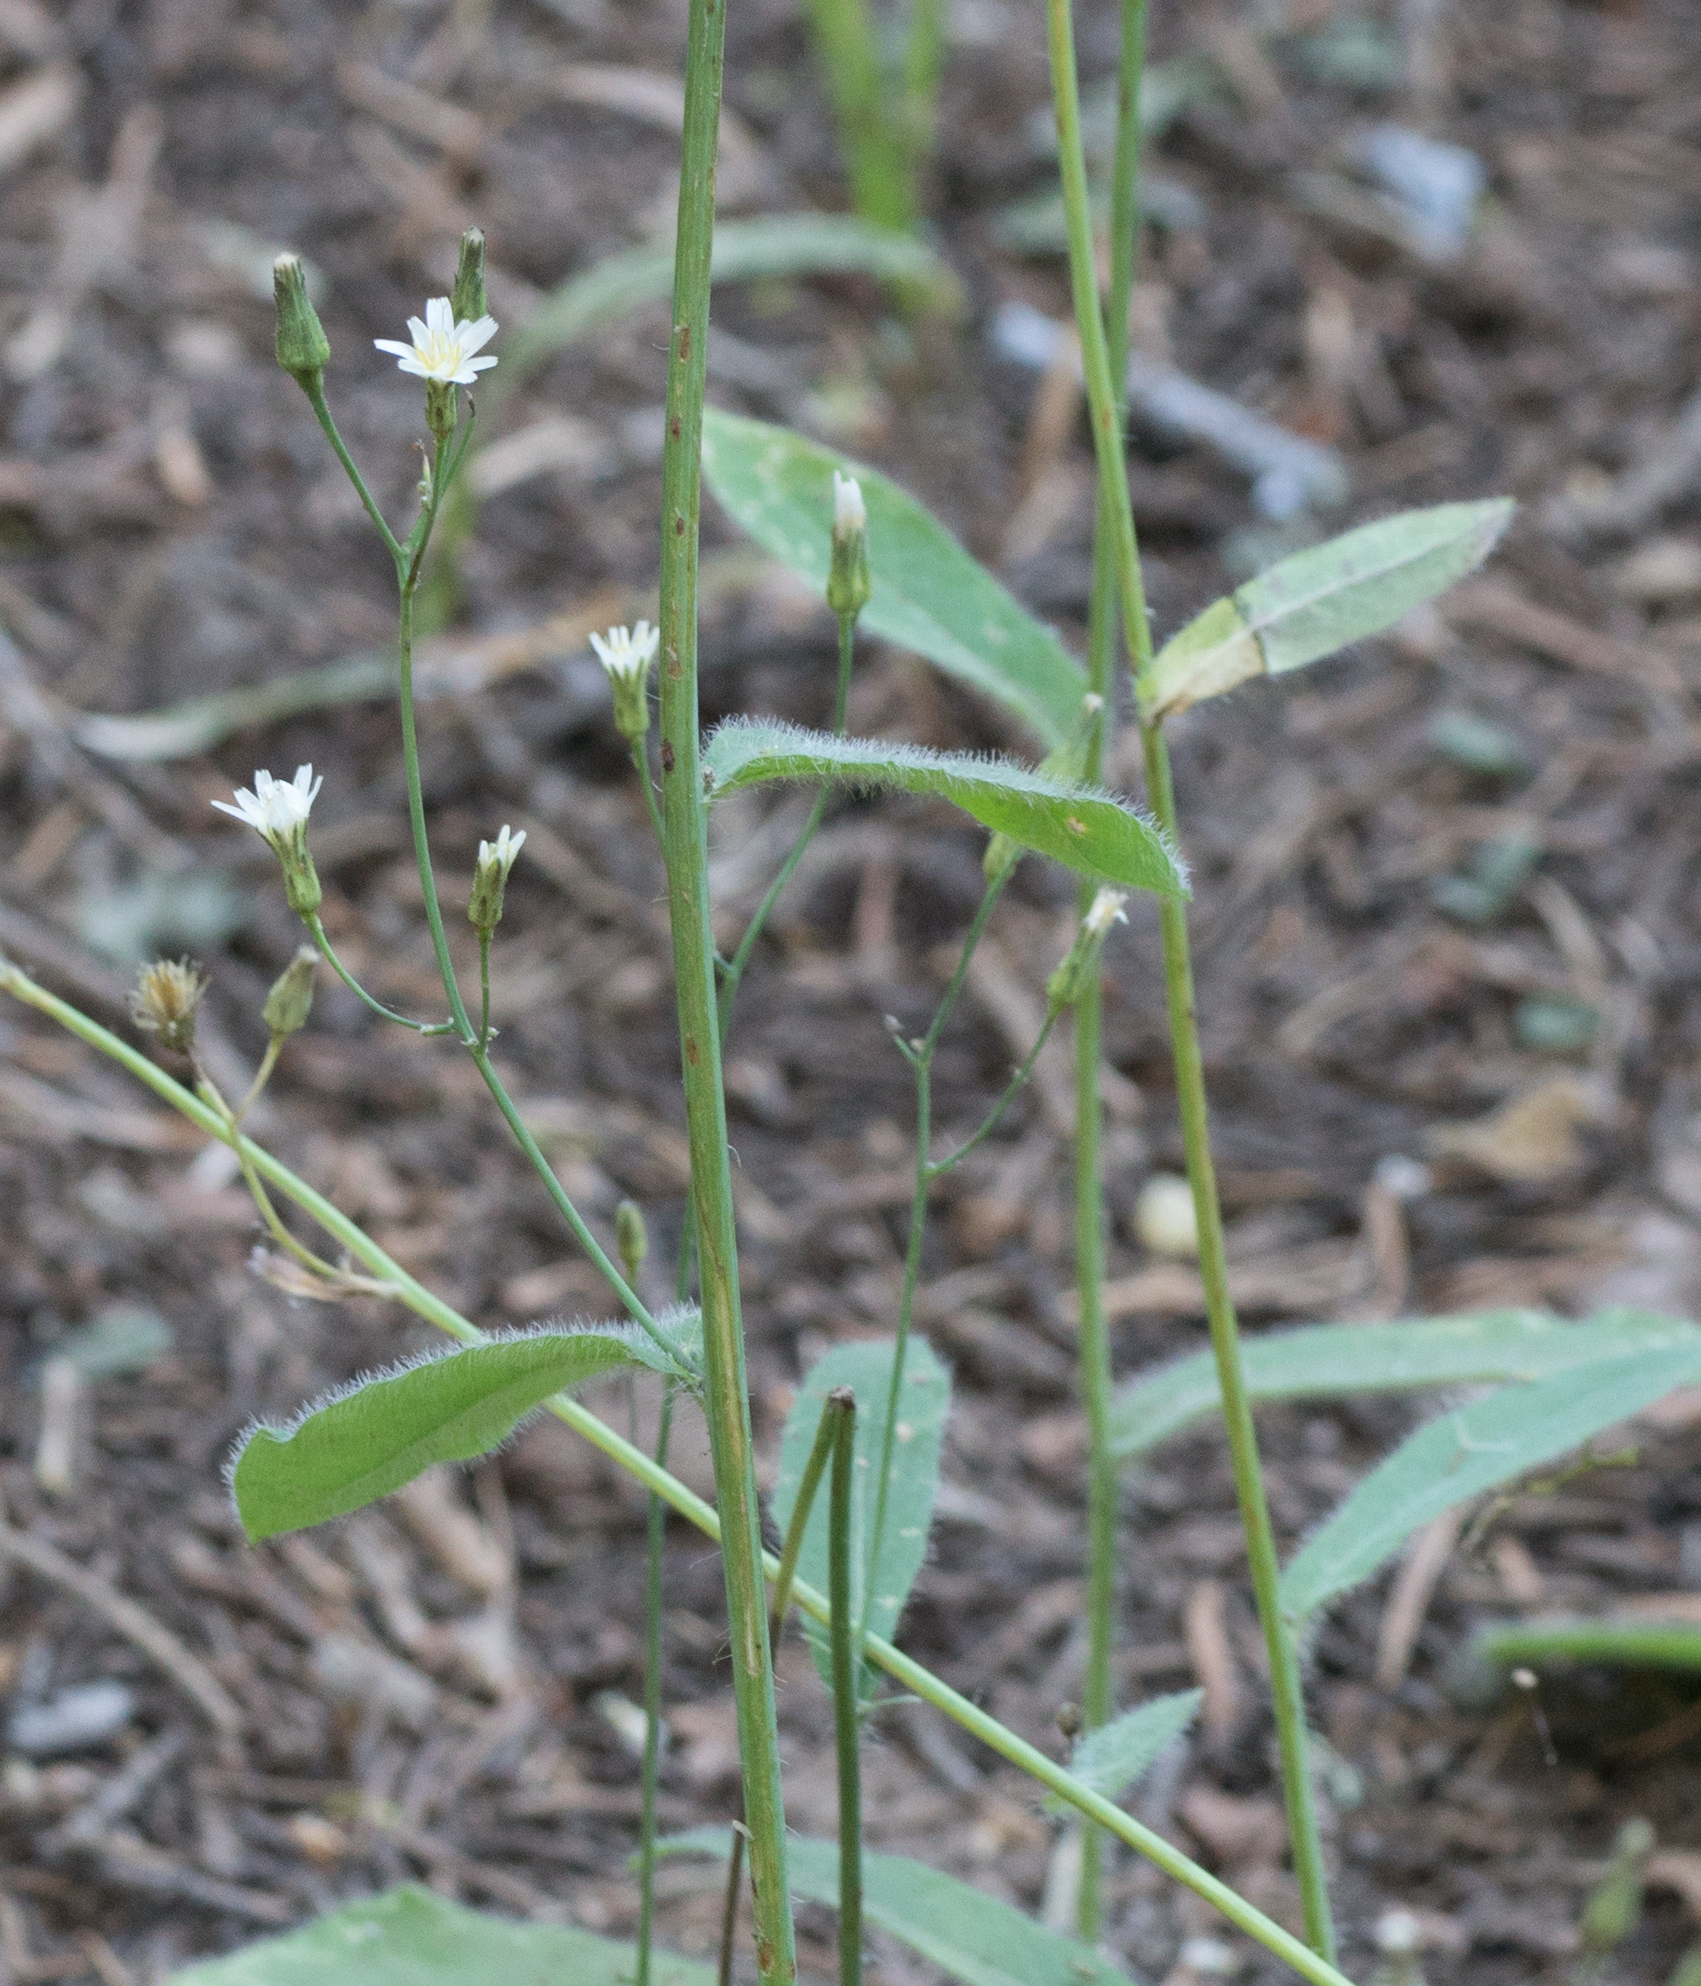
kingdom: Plantae
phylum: Tracheophyta
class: Magnoliopsida
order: Asterales
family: Asteraceae
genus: Hieracium
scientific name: Hieracium albiflorum
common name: White hawkweed
